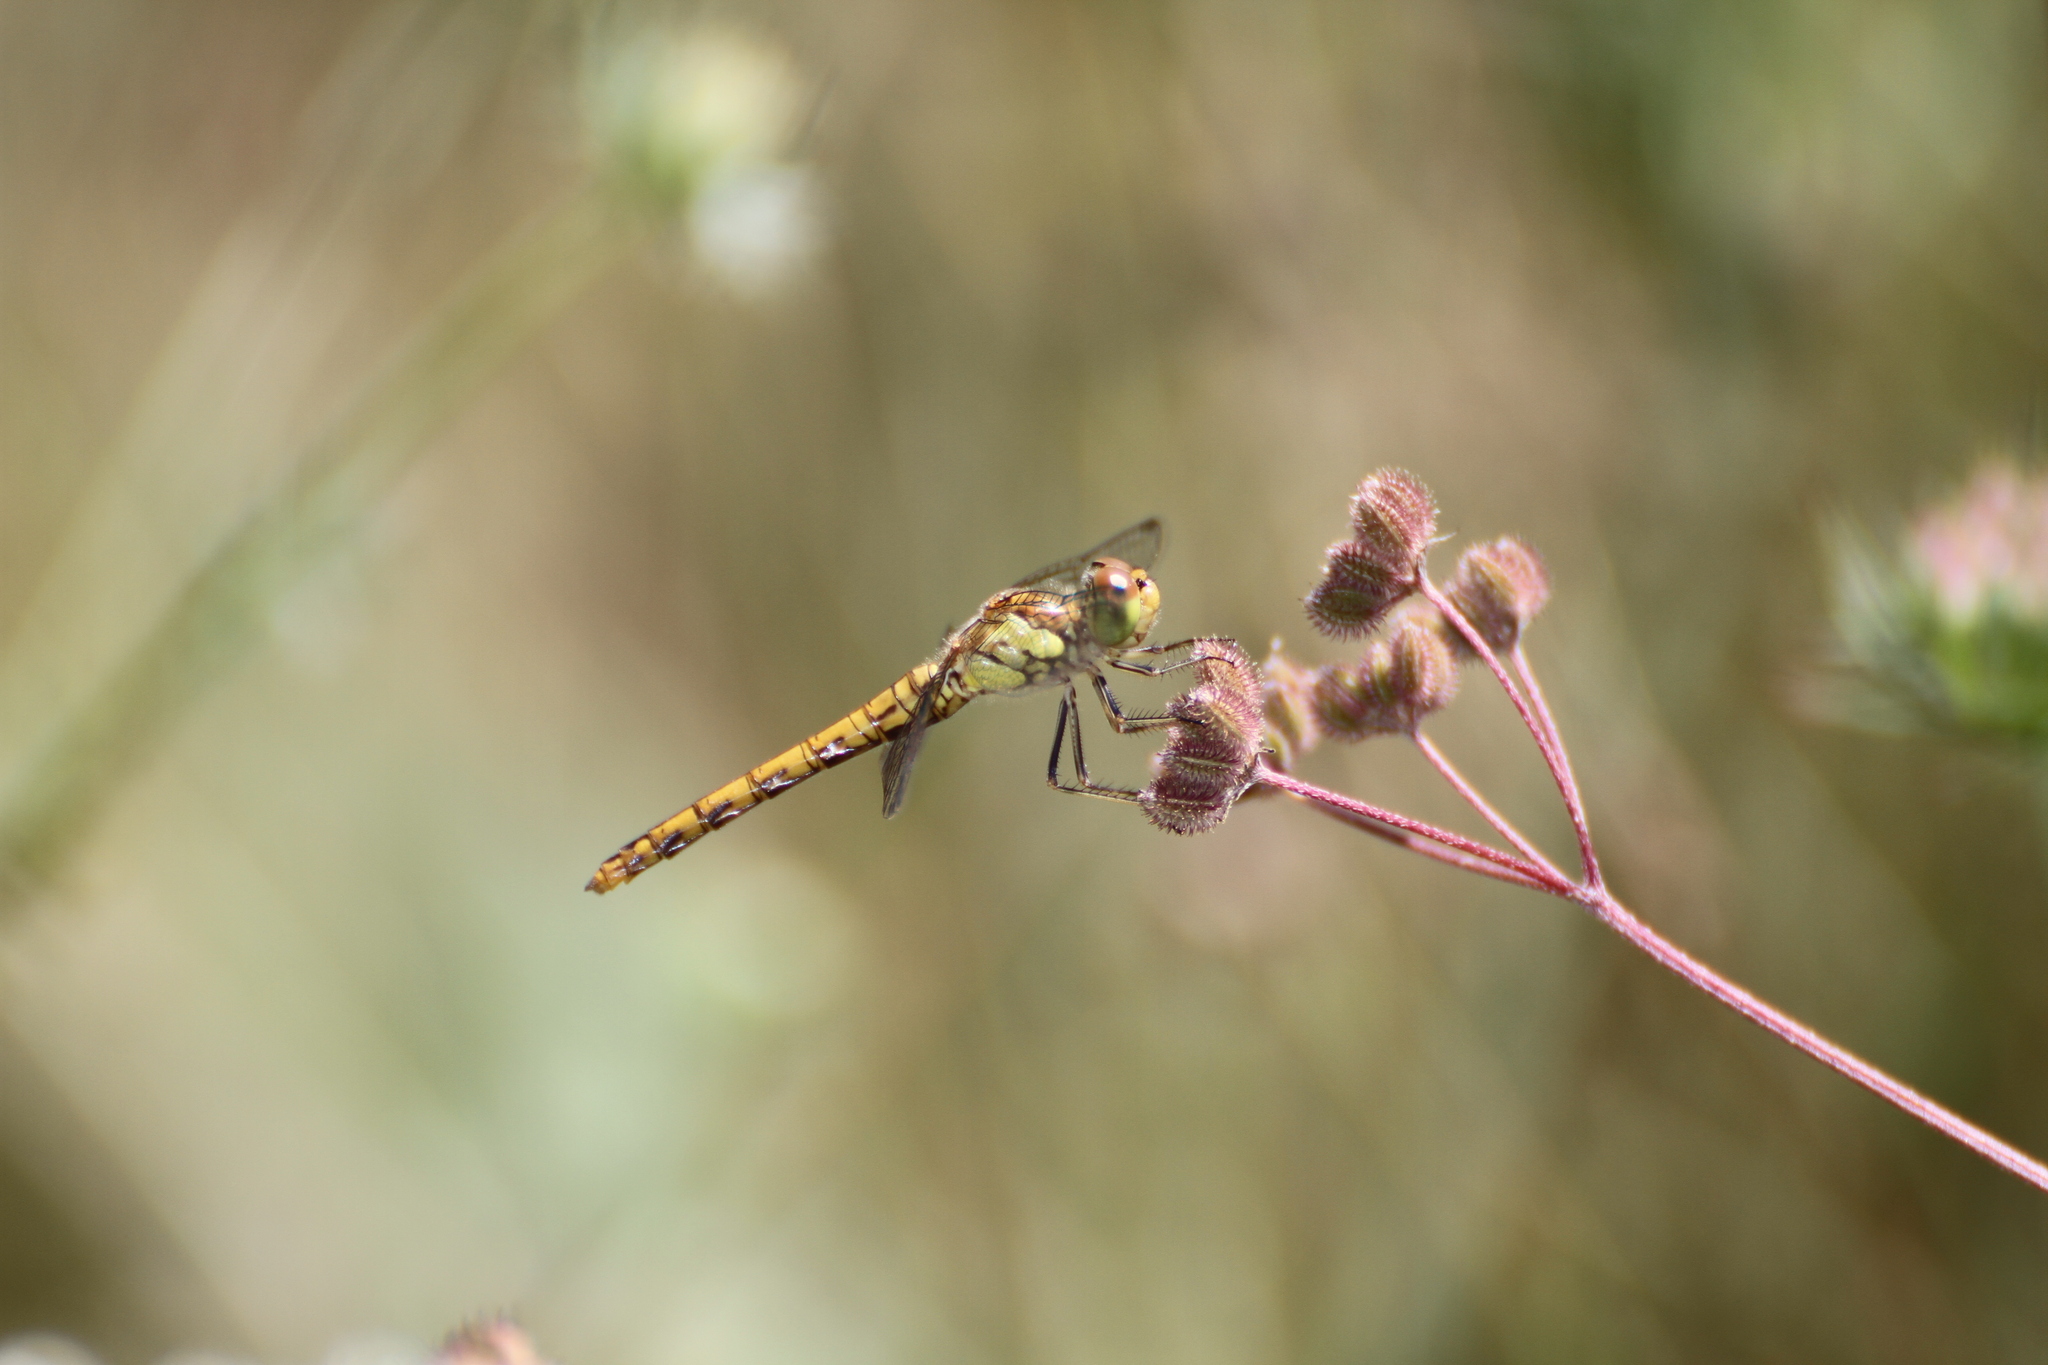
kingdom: Animalia
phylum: Arthropoda
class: Insecta
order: Odonata
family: Libellulidae
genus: Sympetrum
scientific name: Sympetrum striolatum
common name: Common darter
